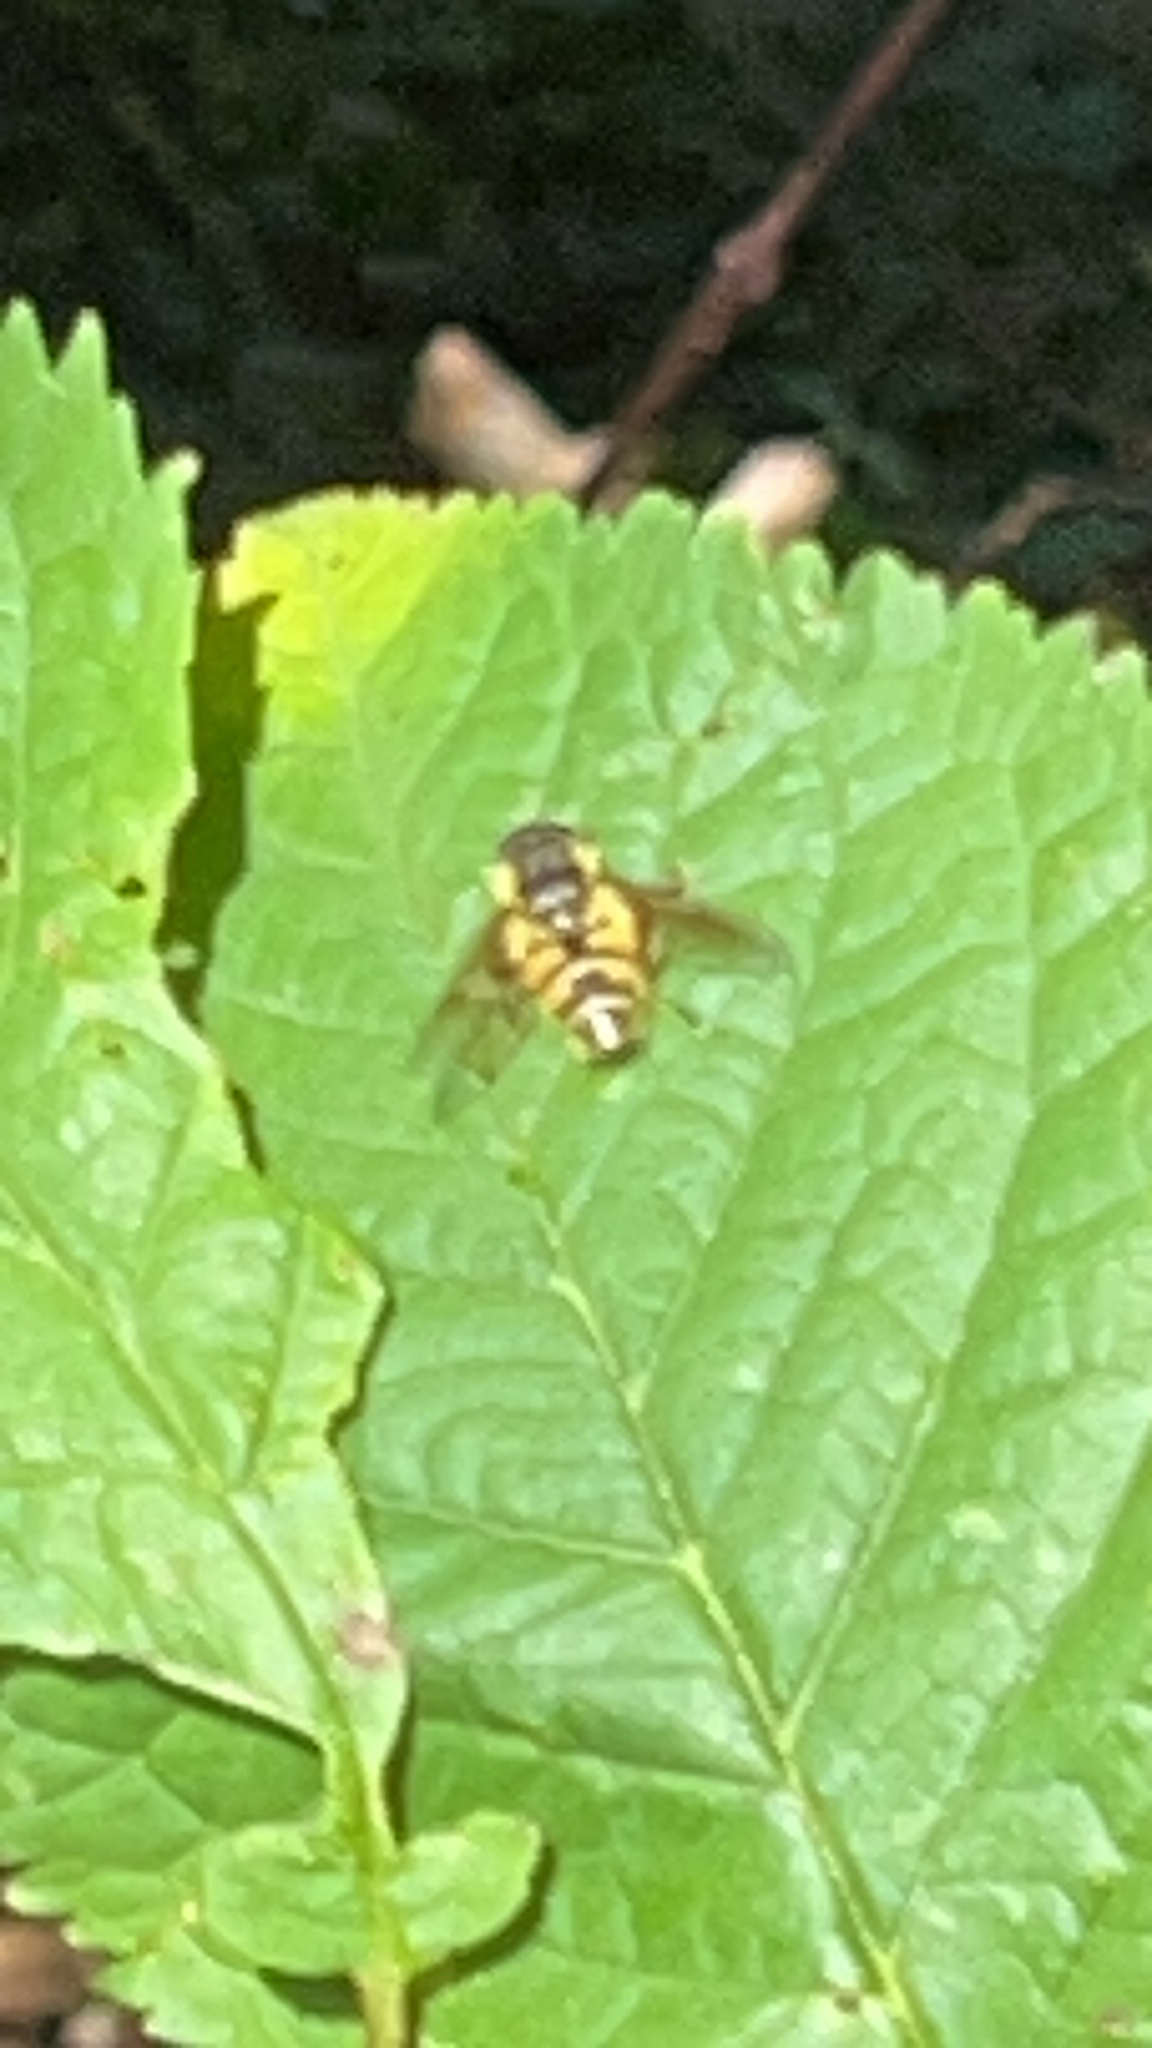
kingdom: Animalia
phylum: Arthropoda
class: Insecta
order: Diptera
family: Syrphidae
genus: Myathropa
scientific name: Myathropa florea
